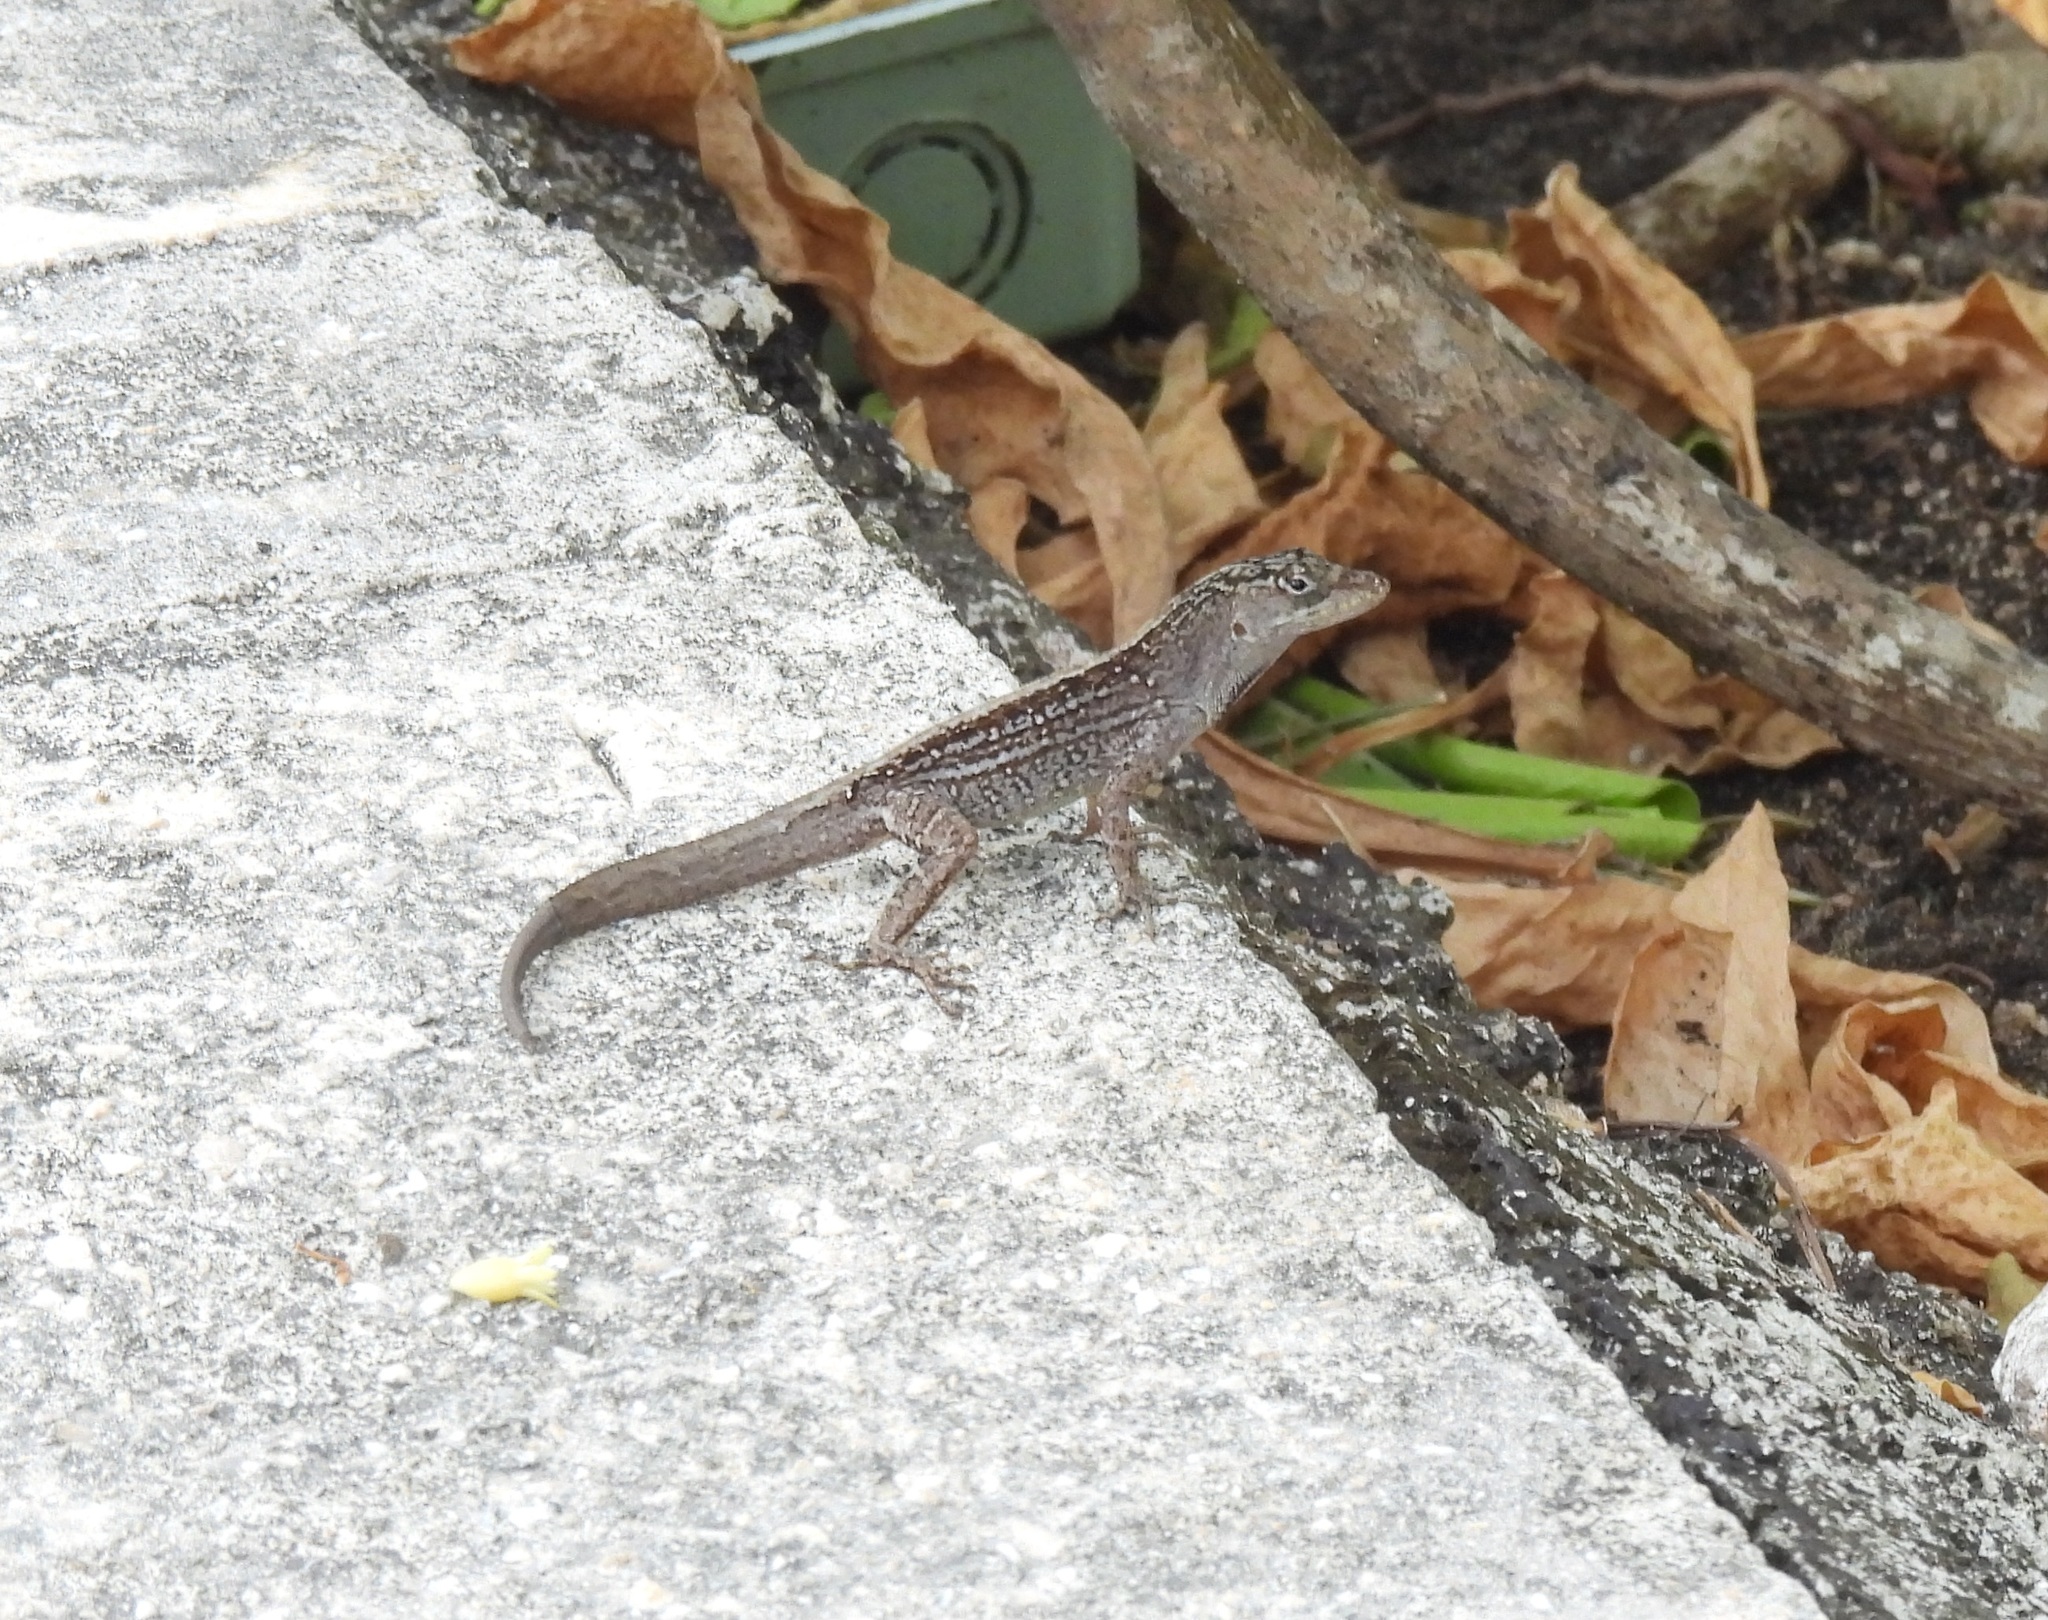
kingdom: Animalia
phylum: Chordata
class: Squamata
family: Dactyloidae
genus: Anolis
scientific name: Anolis sagrei
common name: Brown anole
